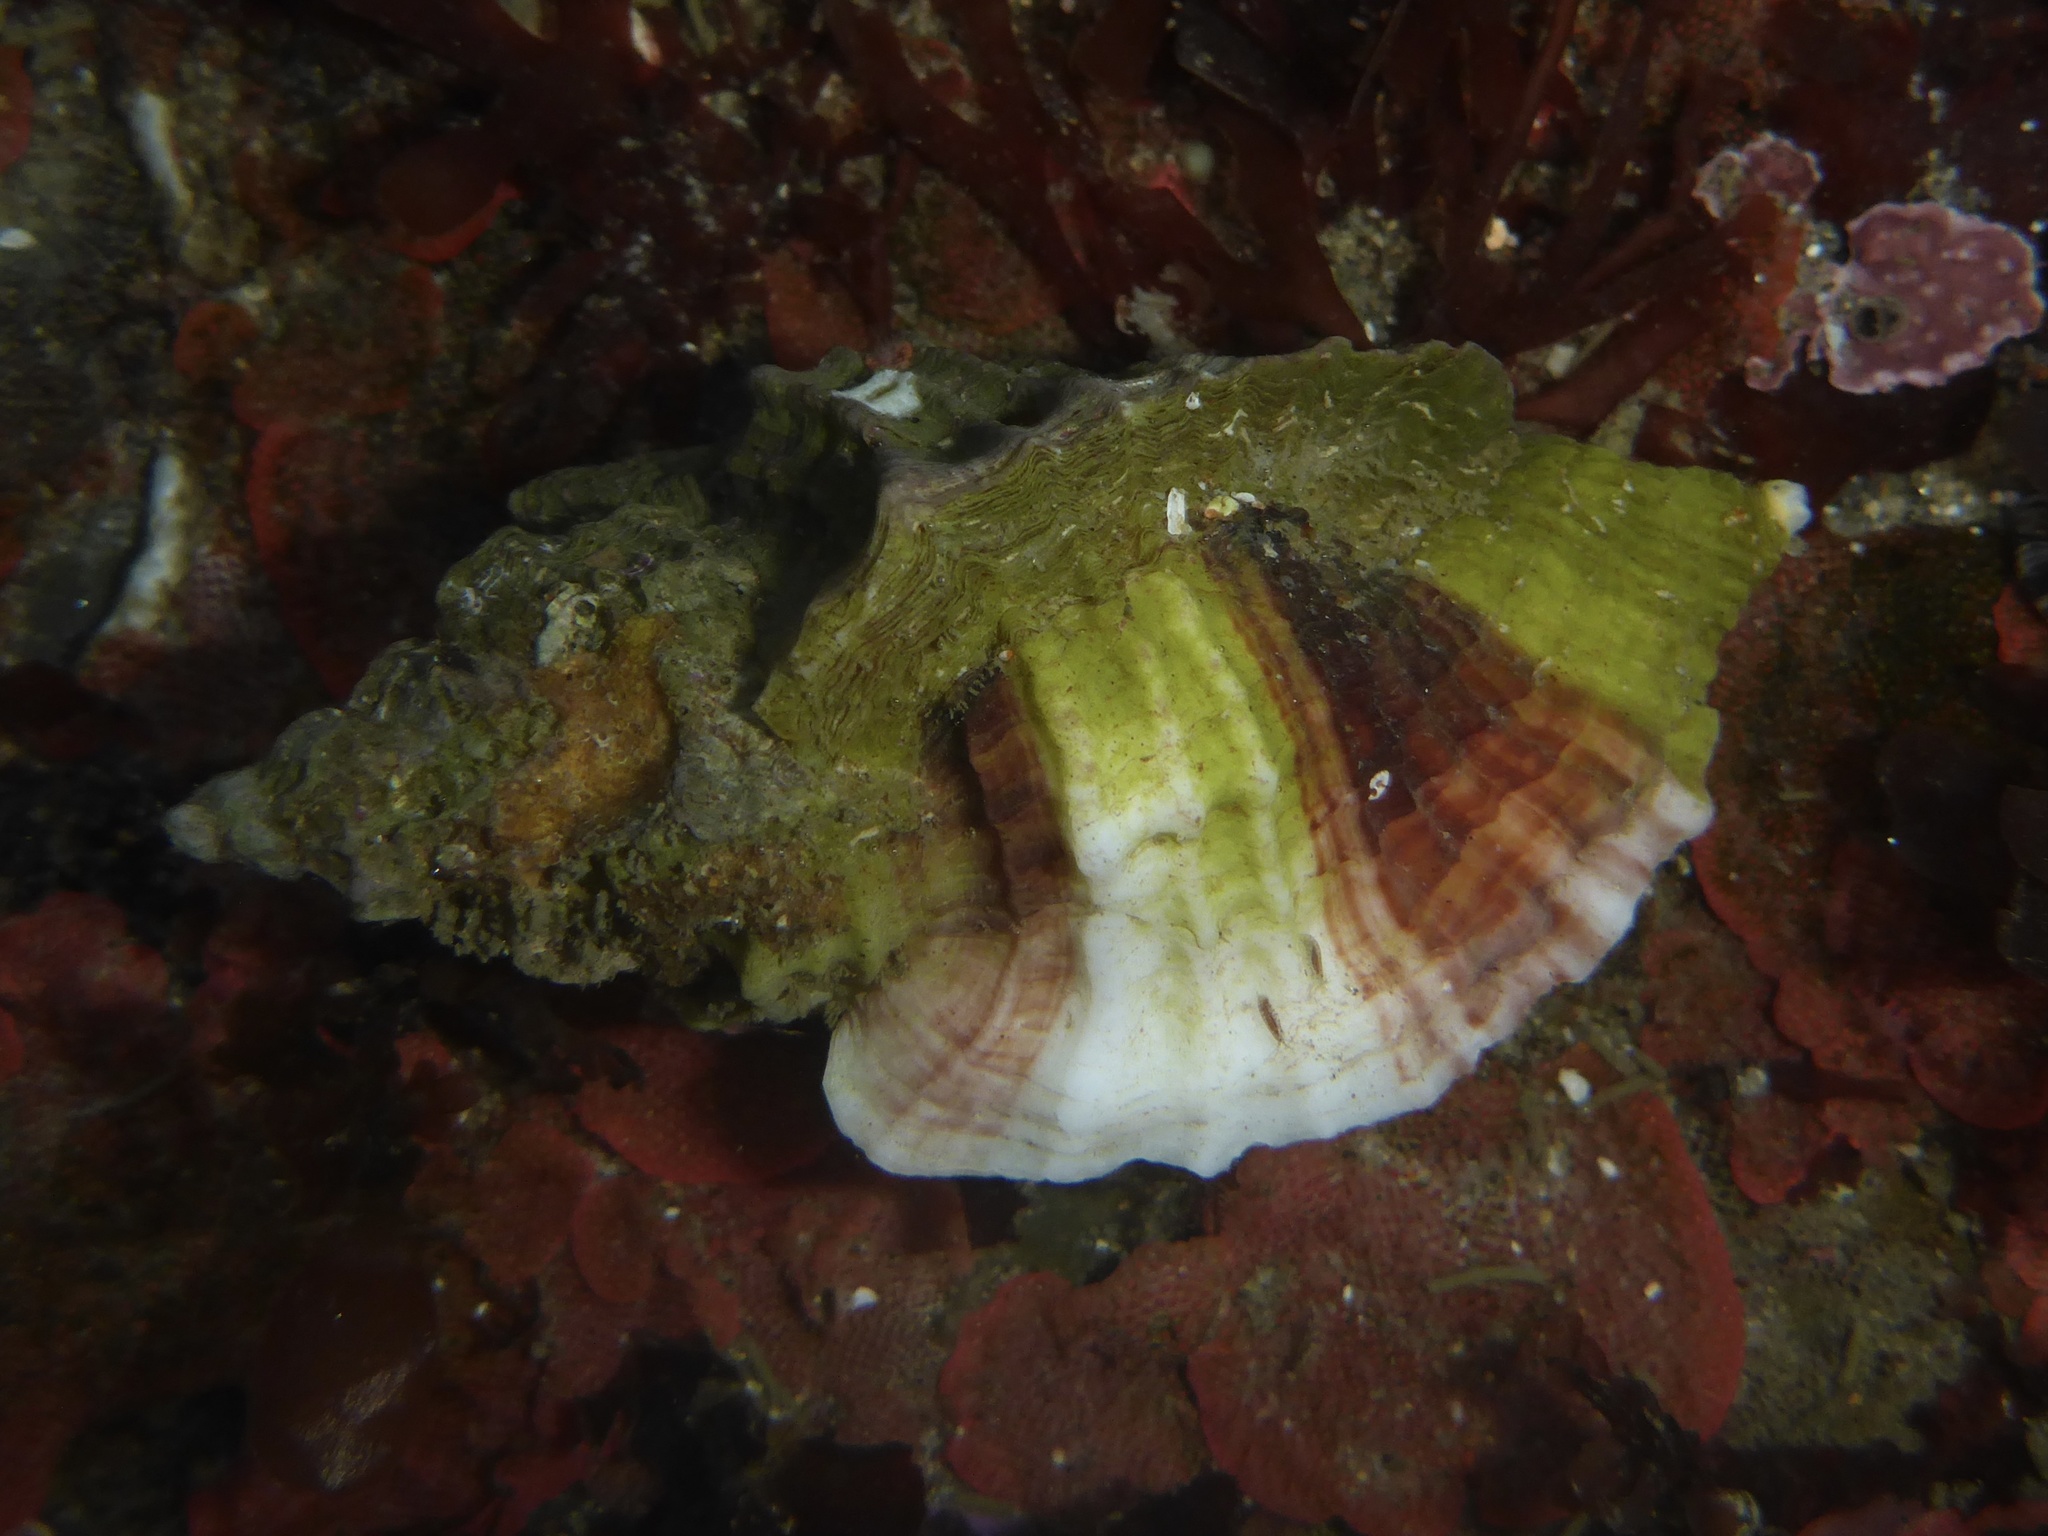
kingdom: Animalia
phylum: Mollusca
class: Gastropoda
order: Neogastropoda
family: Muricidae
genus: Ceratostoma
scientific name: Ceratostoma foliatum
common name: Foliate thorn purpura
